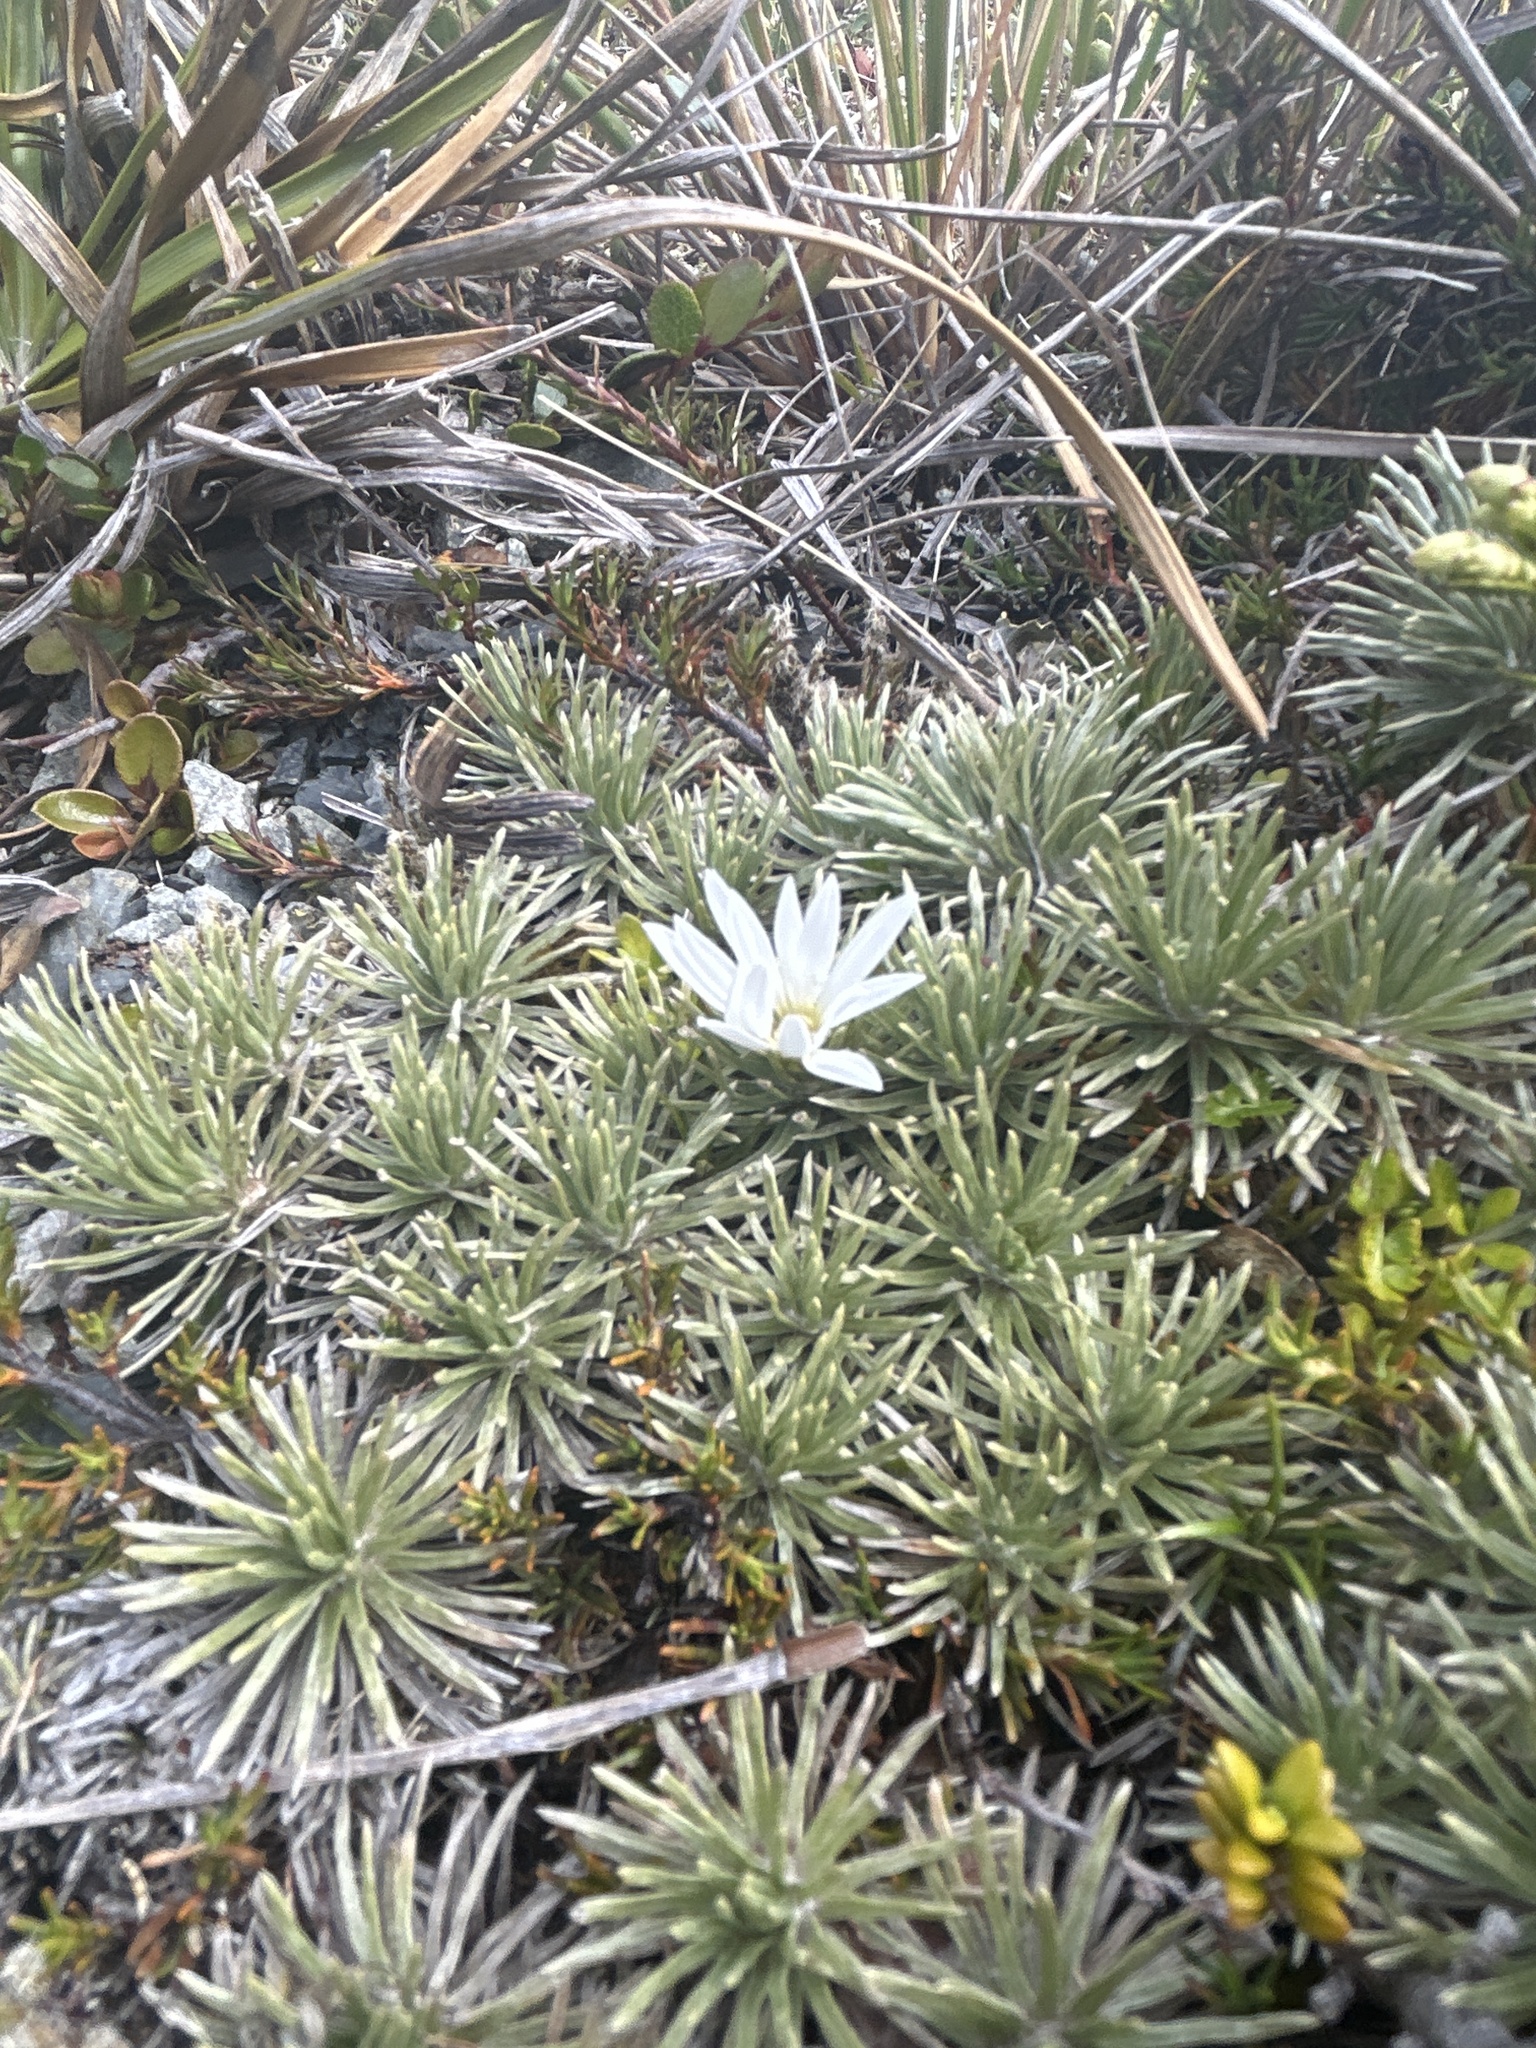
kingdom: Plantae
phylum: Tracheophyta
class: Magnoliopsida
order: Asterales
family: Asteraceae
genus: Celmisia
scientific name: Celmisia sessiliflora
